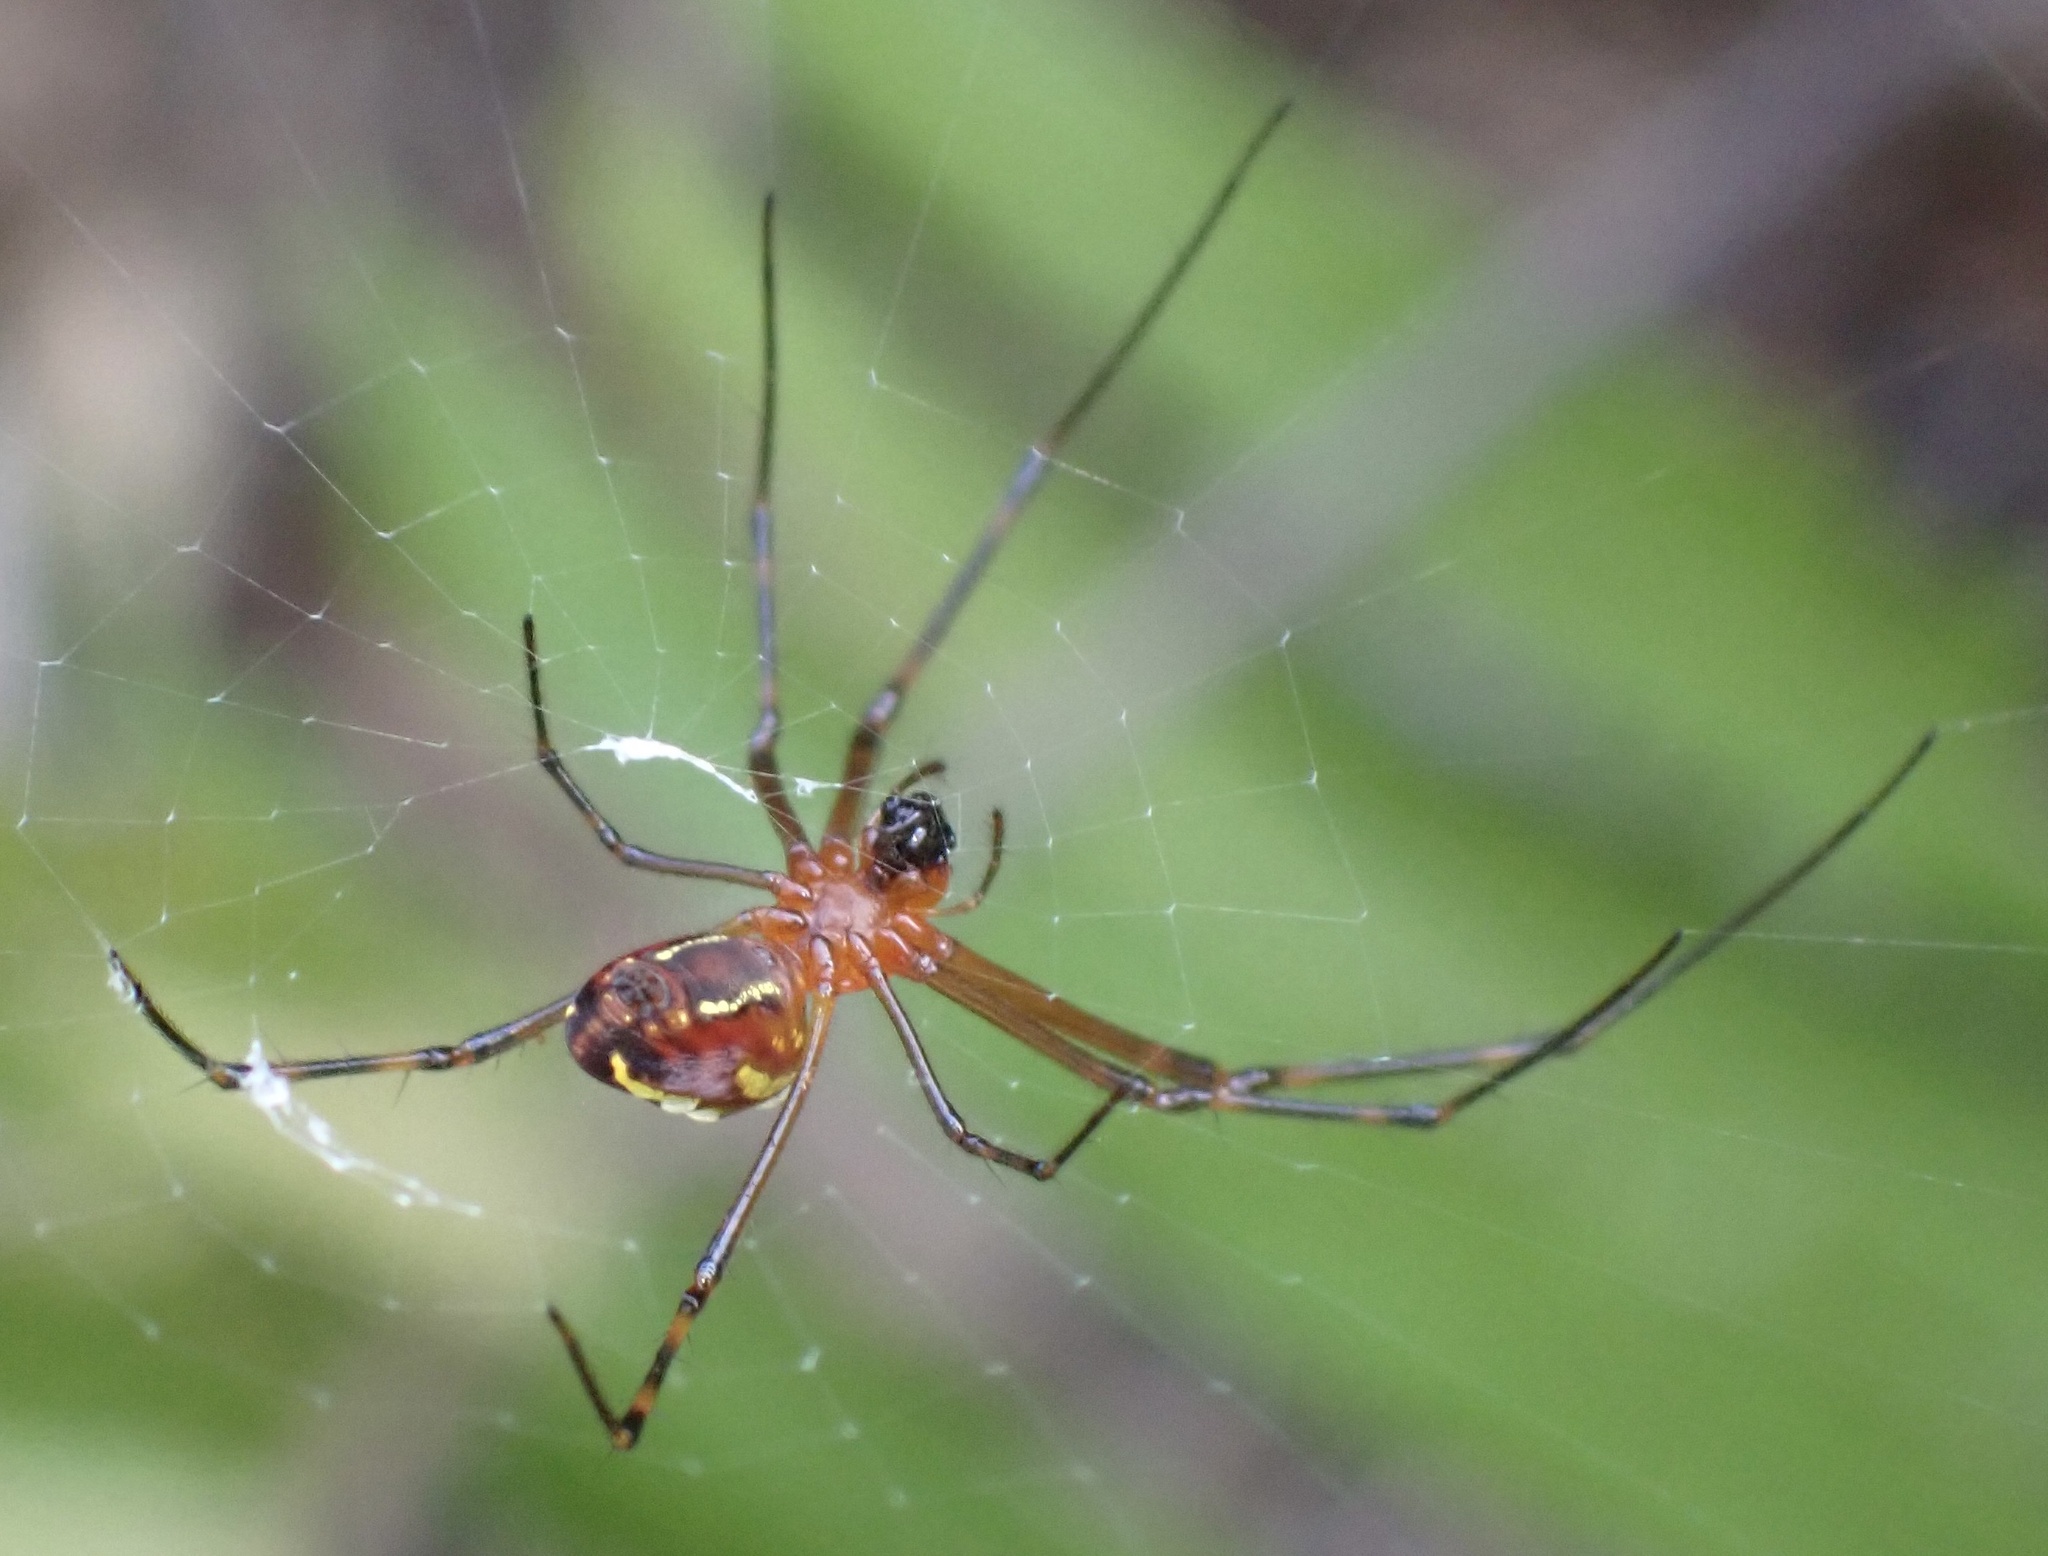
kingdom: Animalia
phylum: Arthropoda
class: Arachnida
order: Araneae
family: Tetragnathidae
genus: Leucauge
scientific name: Leucauge granulata
